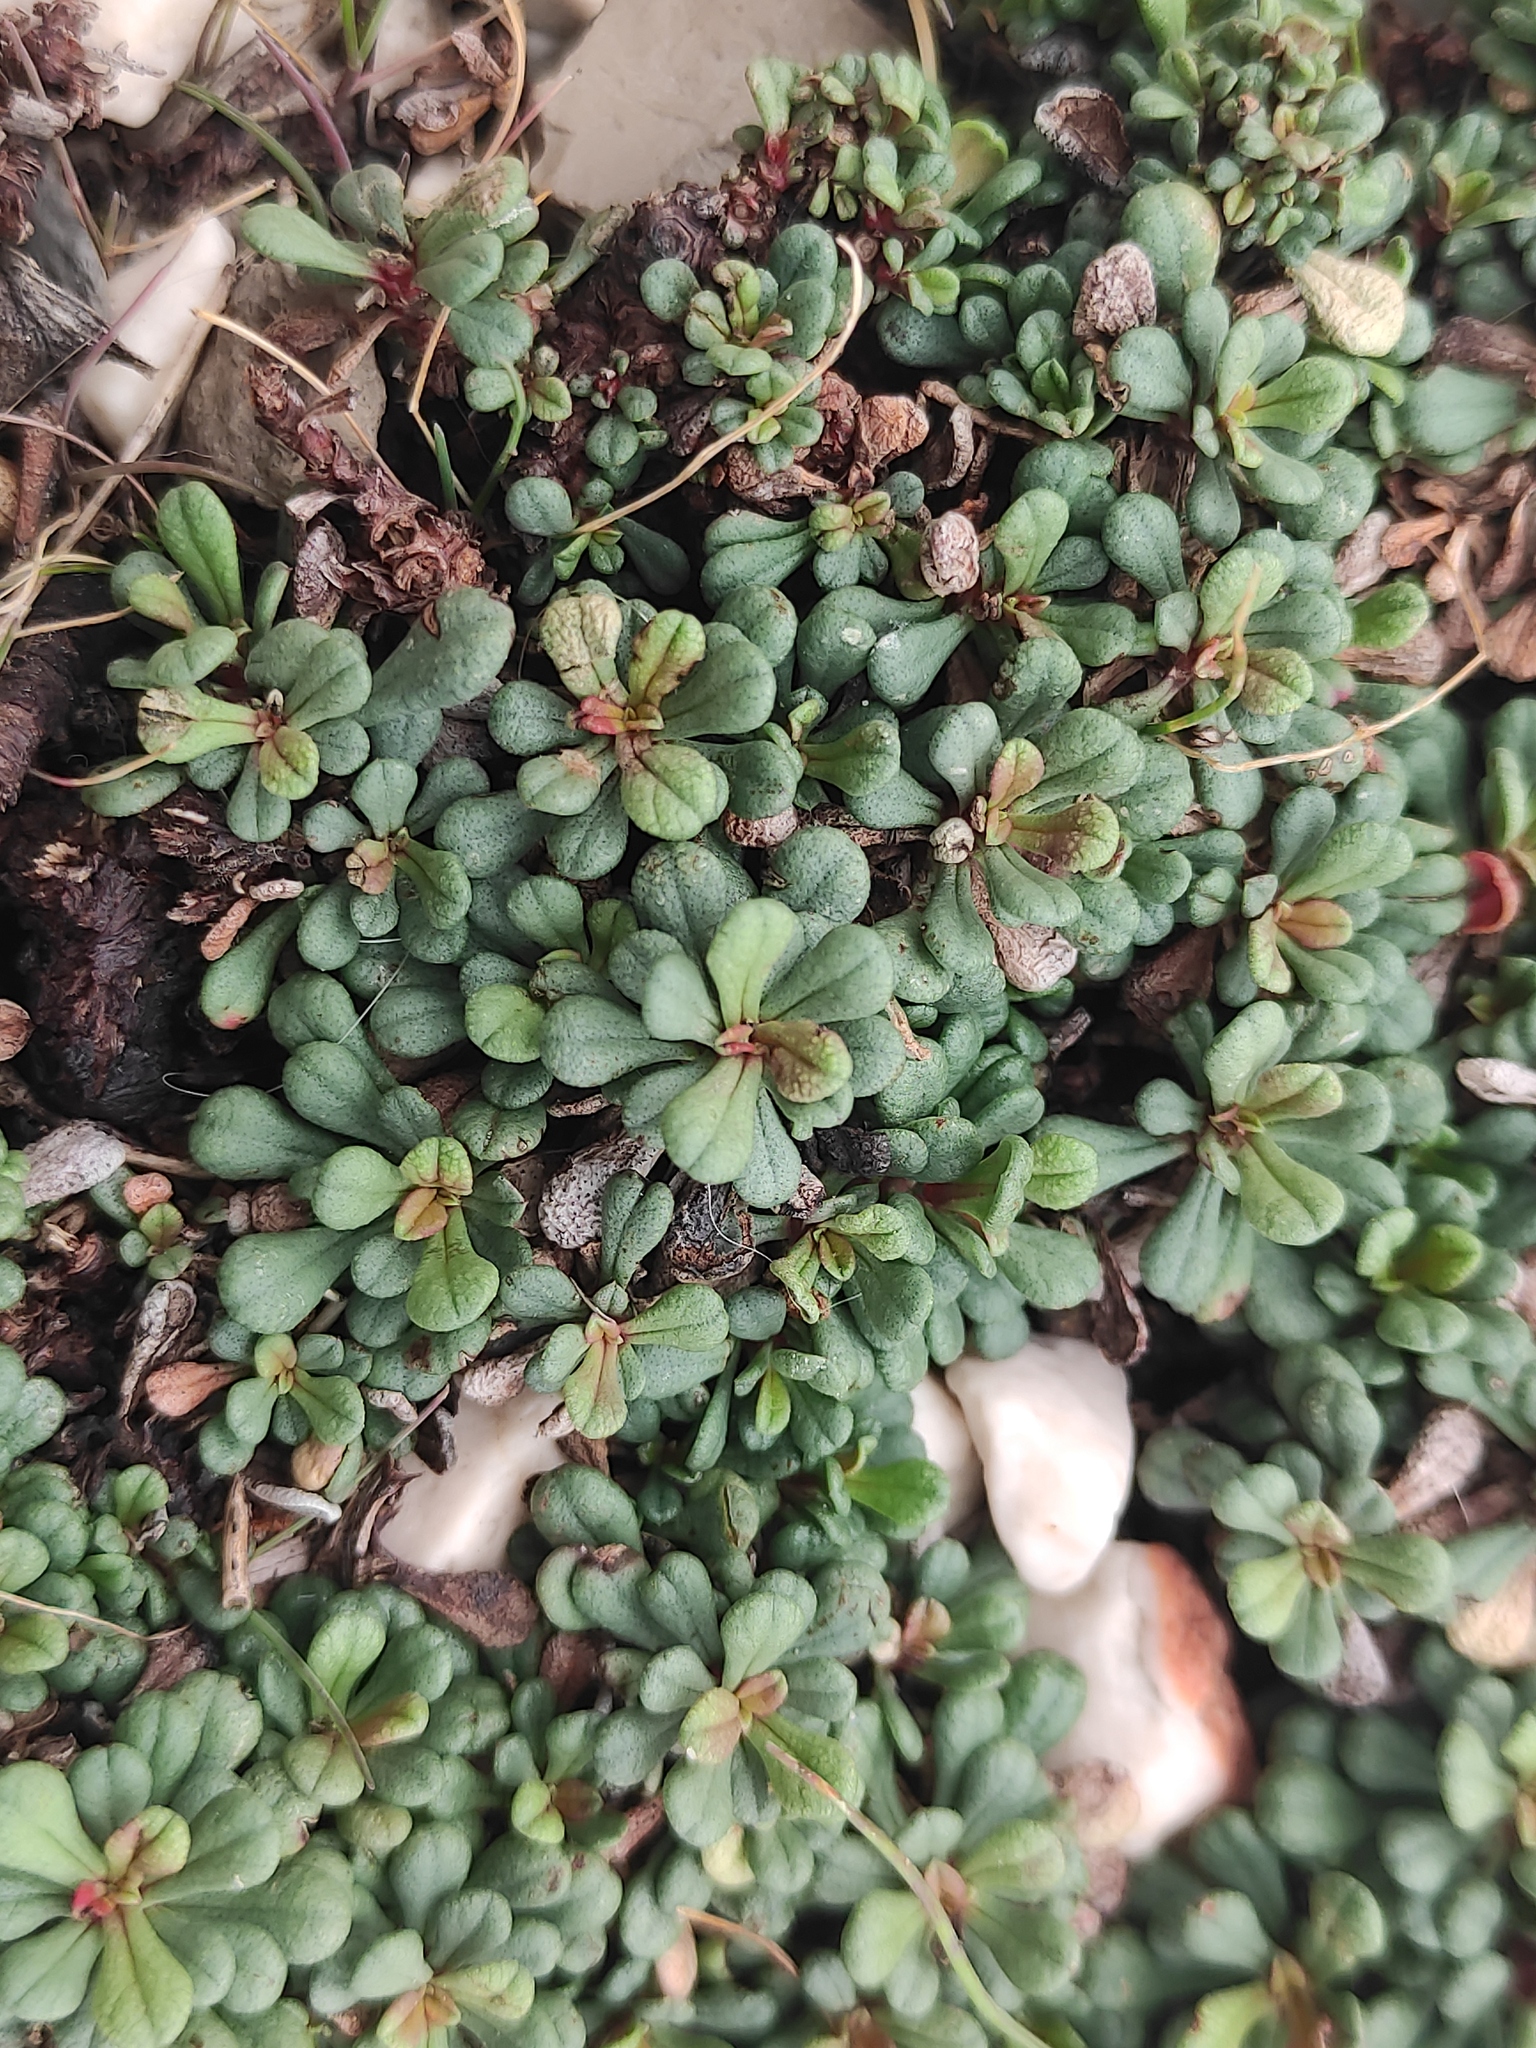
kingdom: Plantae
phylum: Tracheophyta
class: Magnoliopsida
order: Caryophyllales
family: Plumbaginaceae
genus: Limonium
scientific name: Limonium pseudominutum
